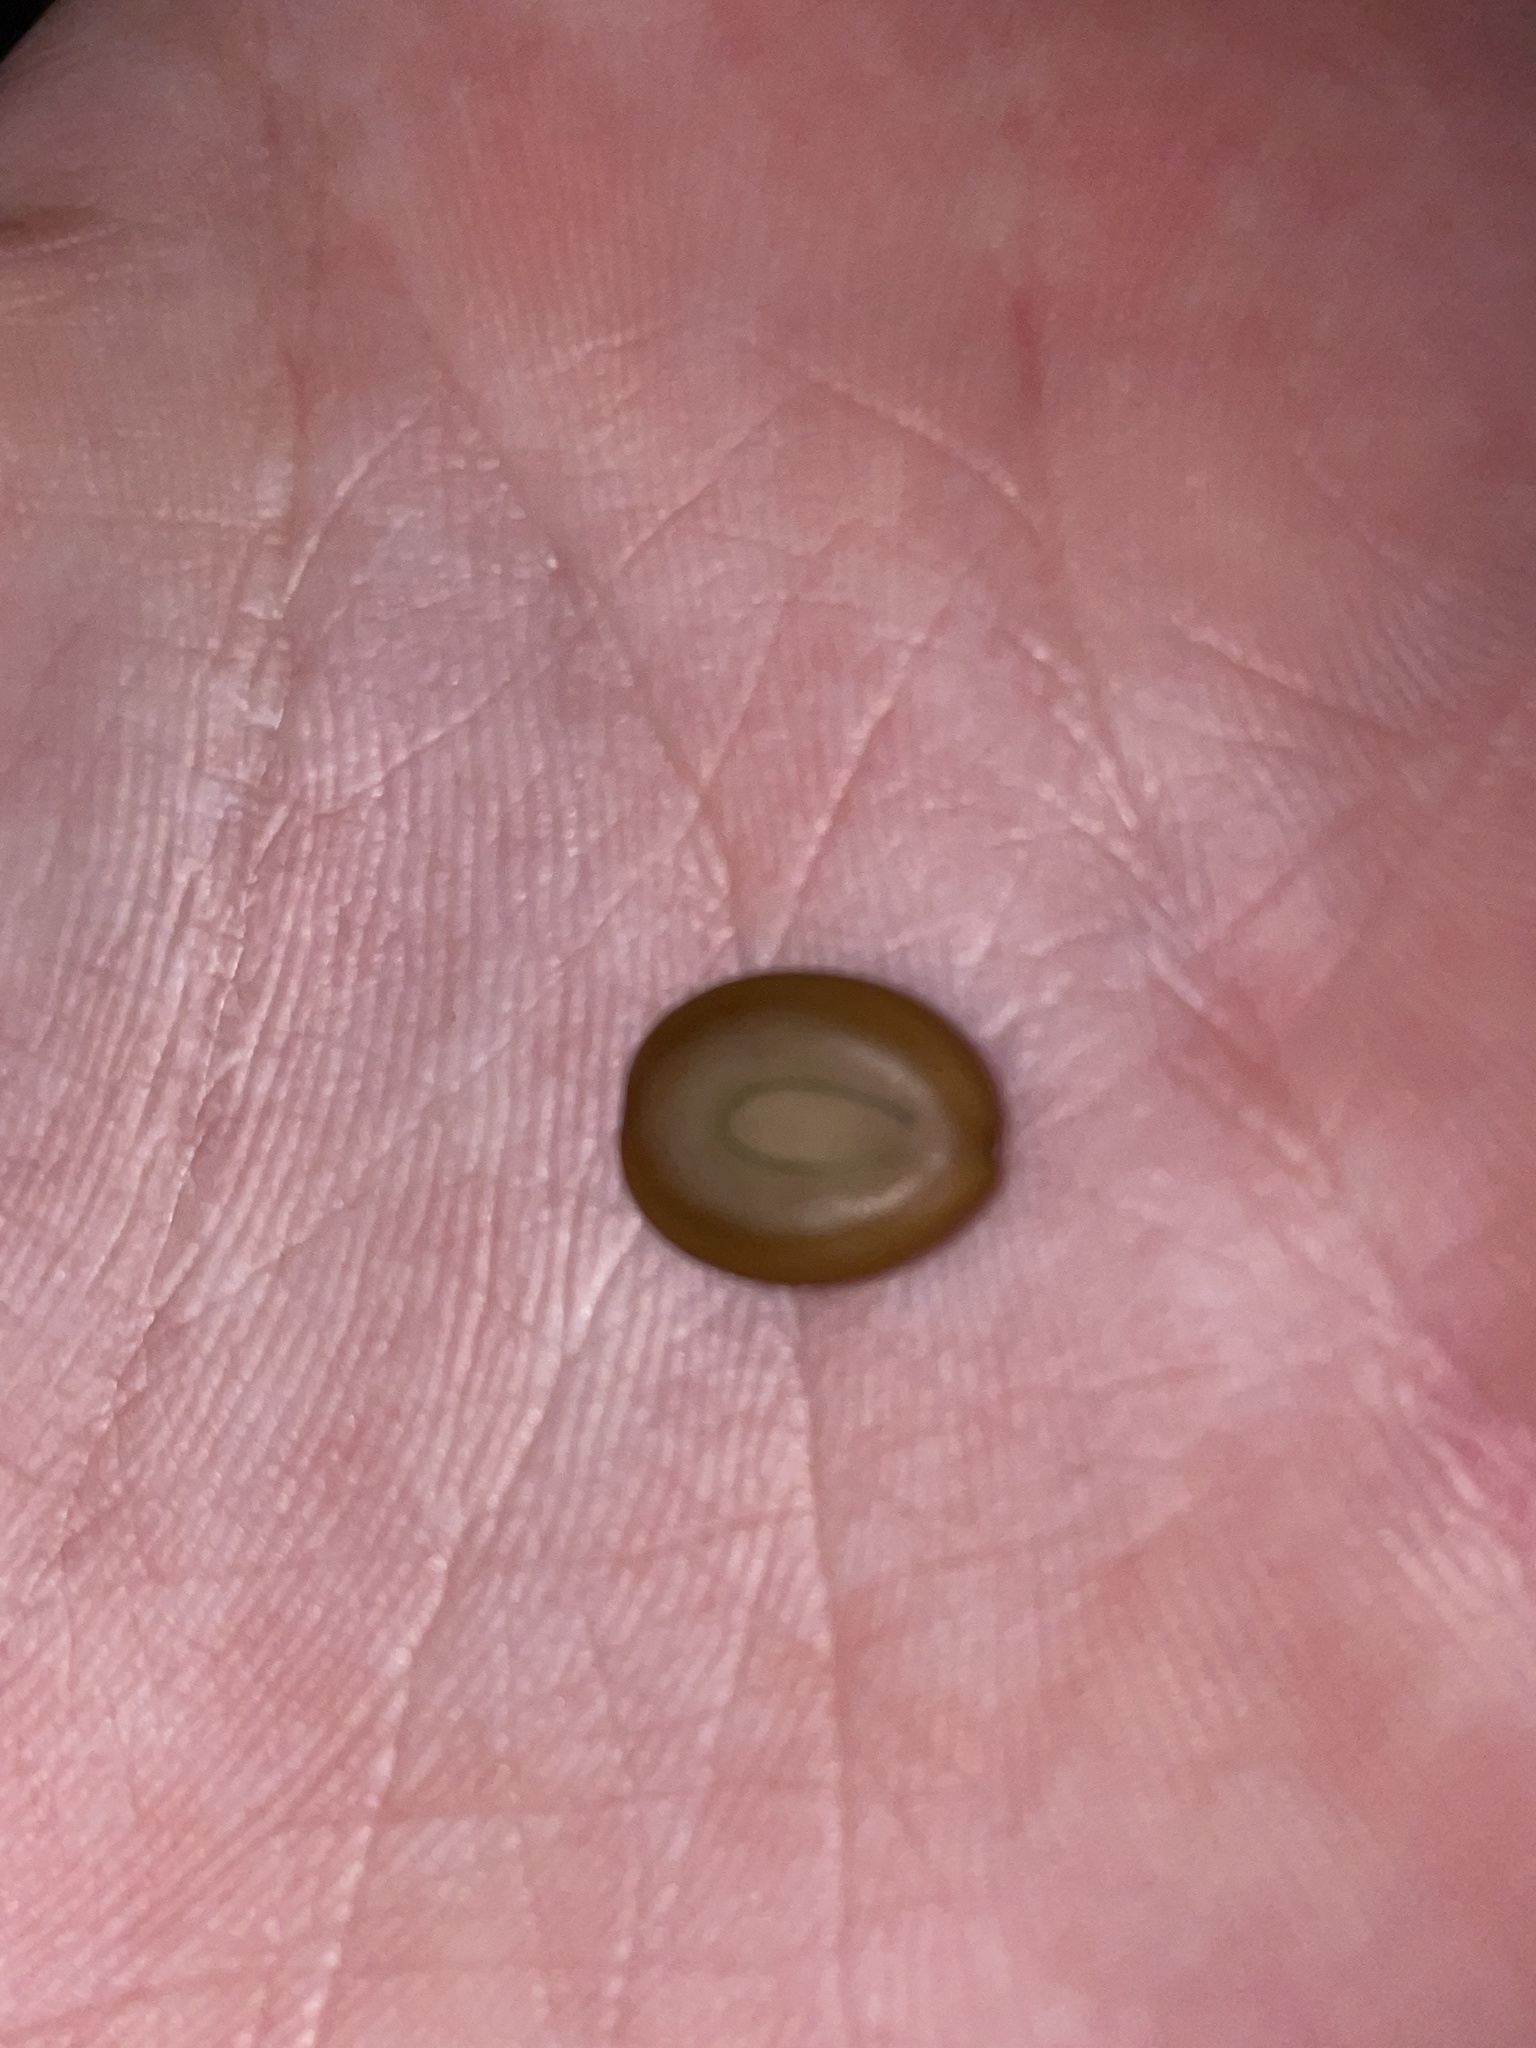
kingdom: Plantae
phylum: Tracheophyta
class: Magnoliopsida
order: Fabales
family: Fabaceae
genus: Albizia
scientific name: Albizia lebbeck
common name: Woman's tongue
